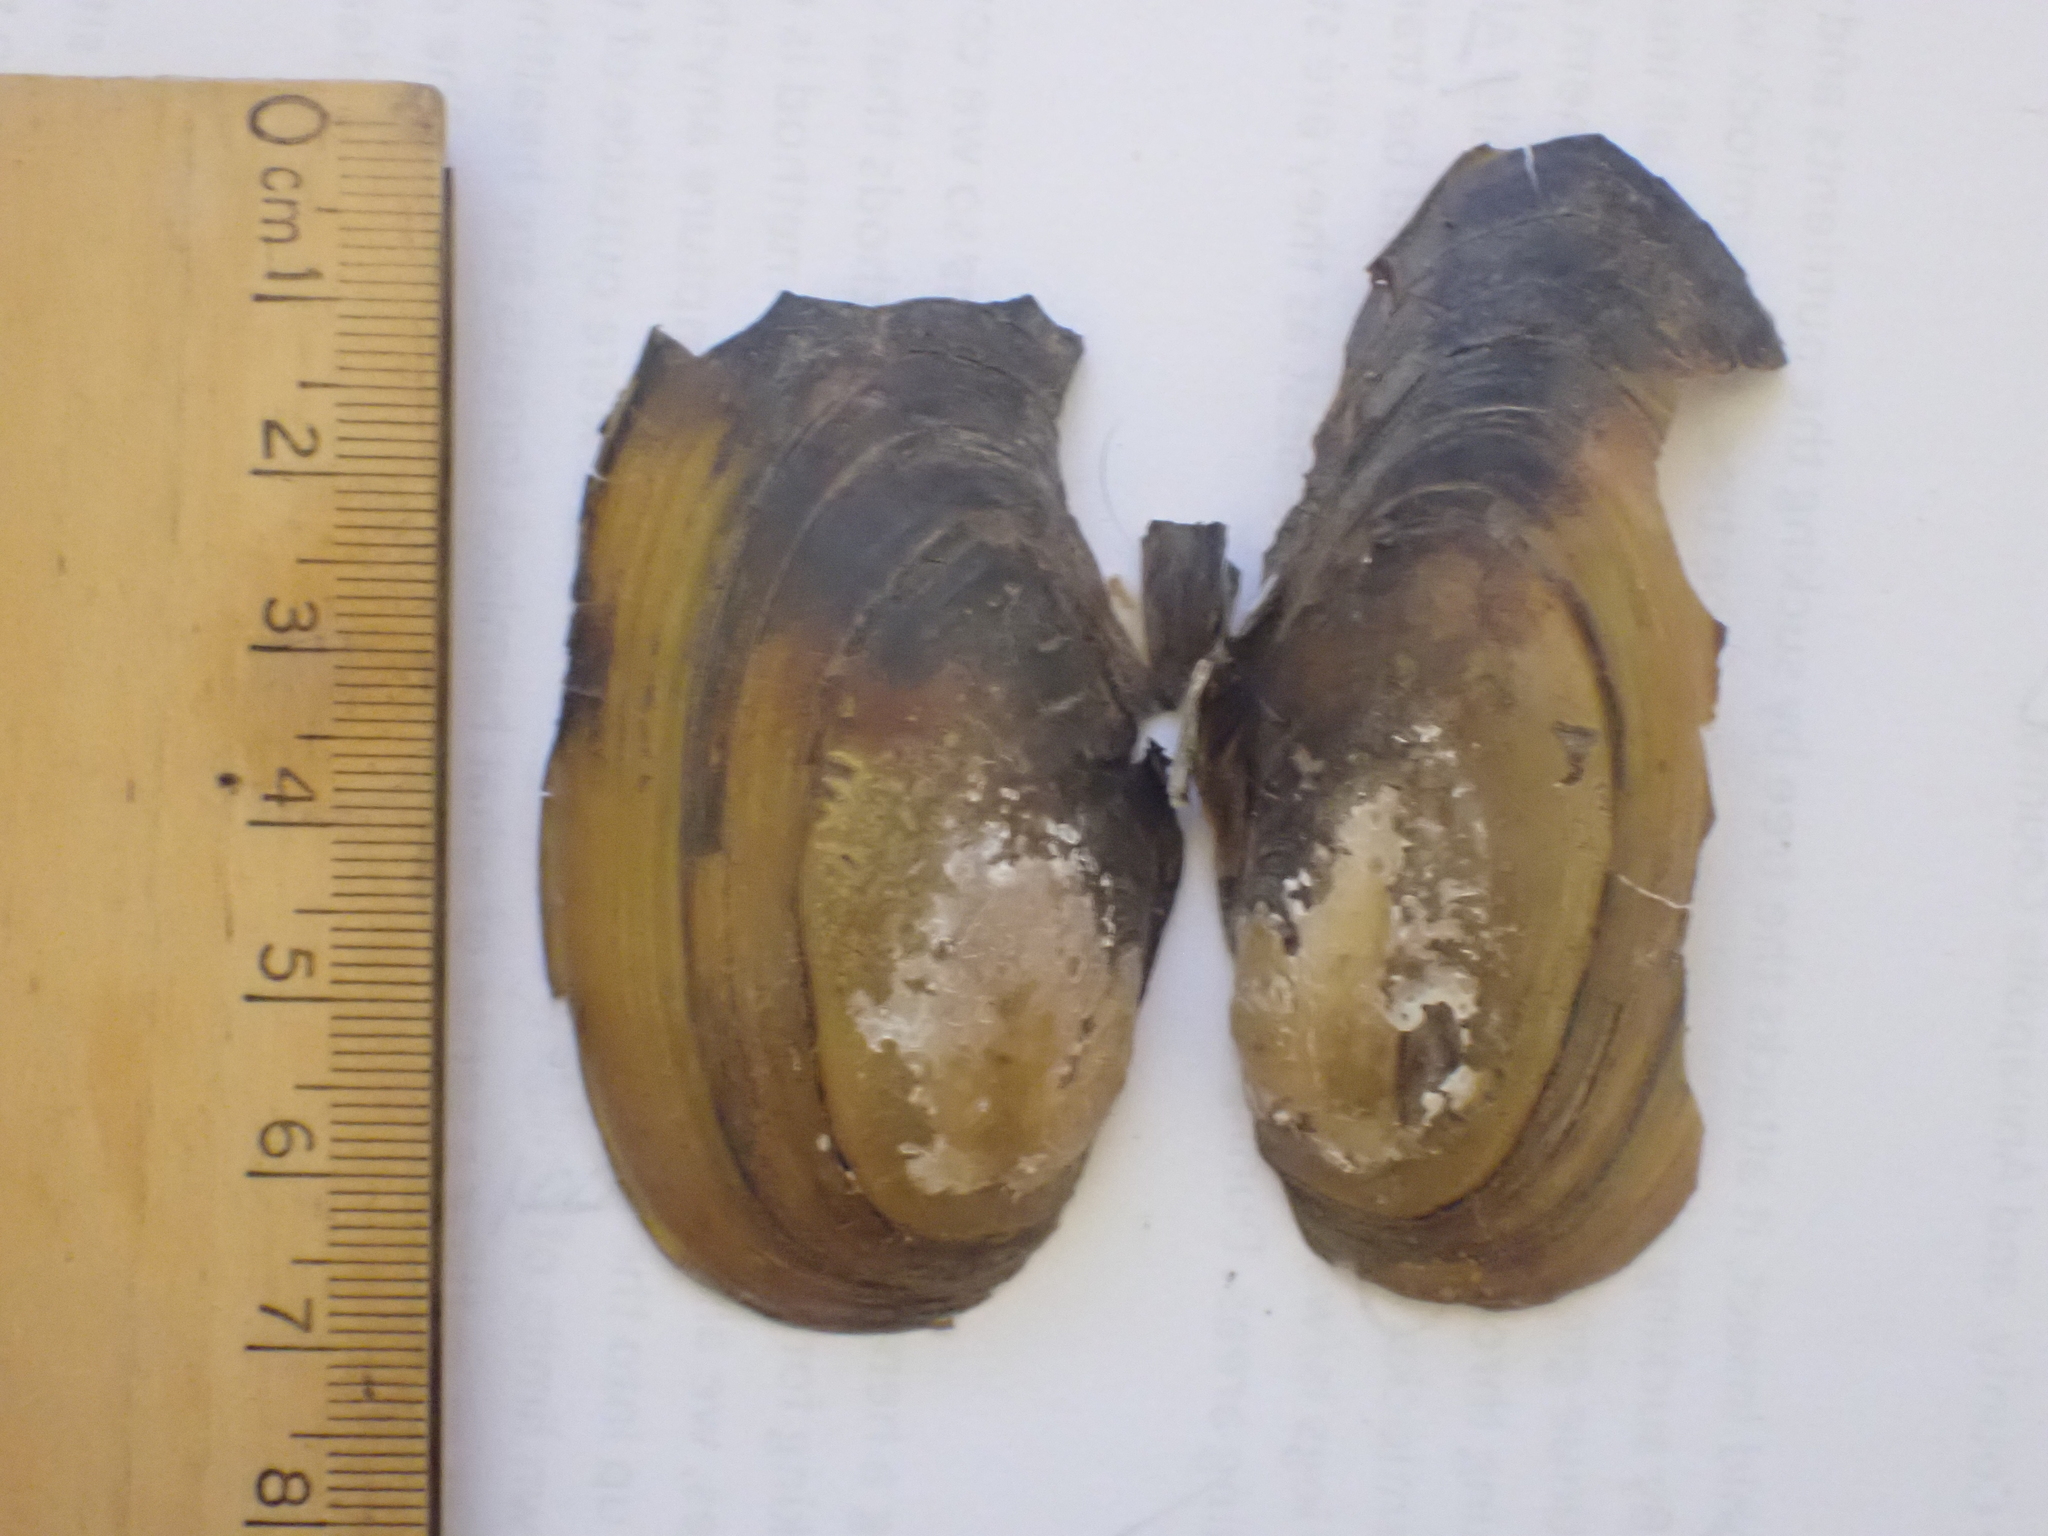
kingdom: Animalia
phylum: Mollusca
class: Bivalvia
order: Unionida
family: Unionidae
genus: Pyganodon
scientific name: Pyganodon cataracta
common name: Eastern floater
